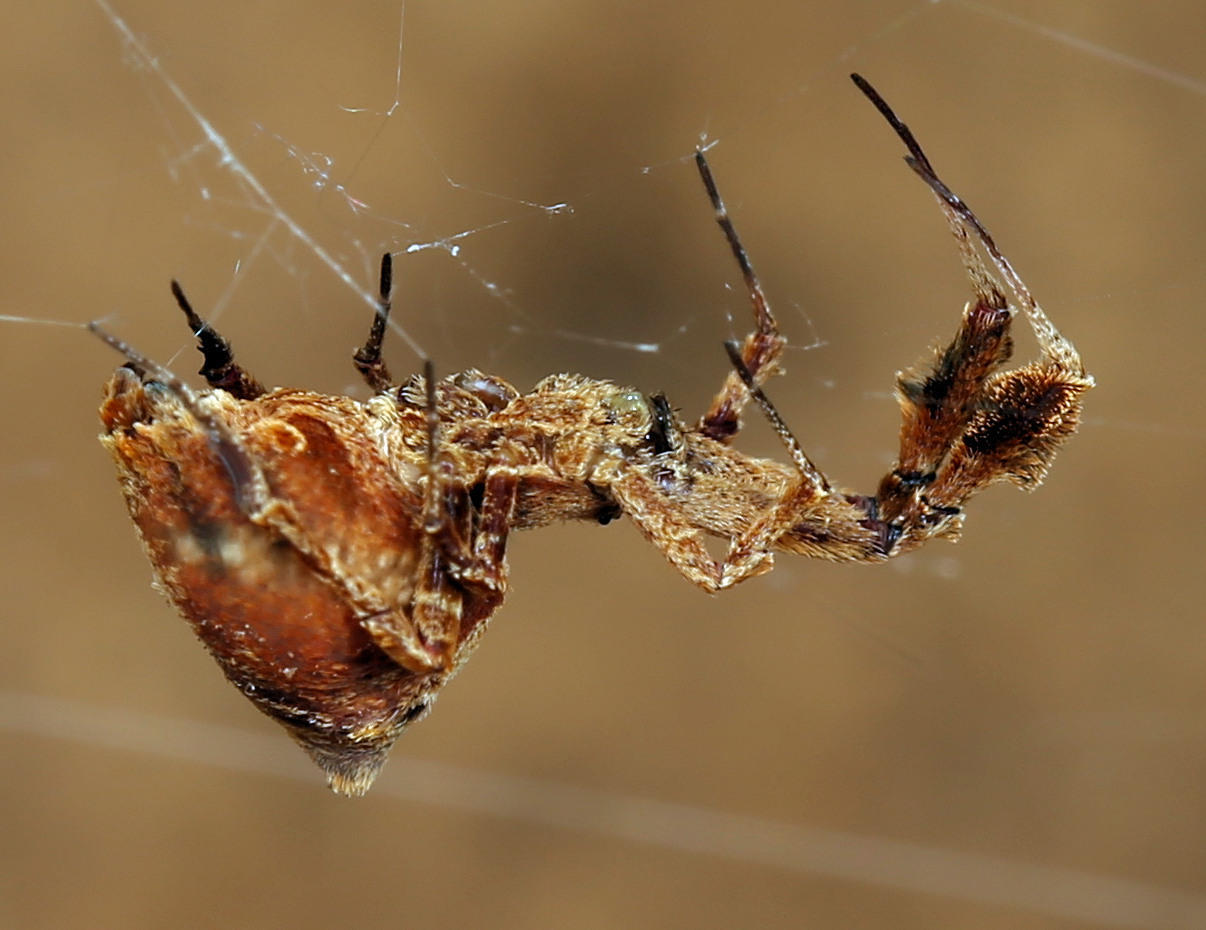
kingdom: Animalia
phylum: Arthropoda
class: Arachnida
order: Araneae
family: Uloboridae
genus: Uloborus
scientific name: Uloborus plumipes
